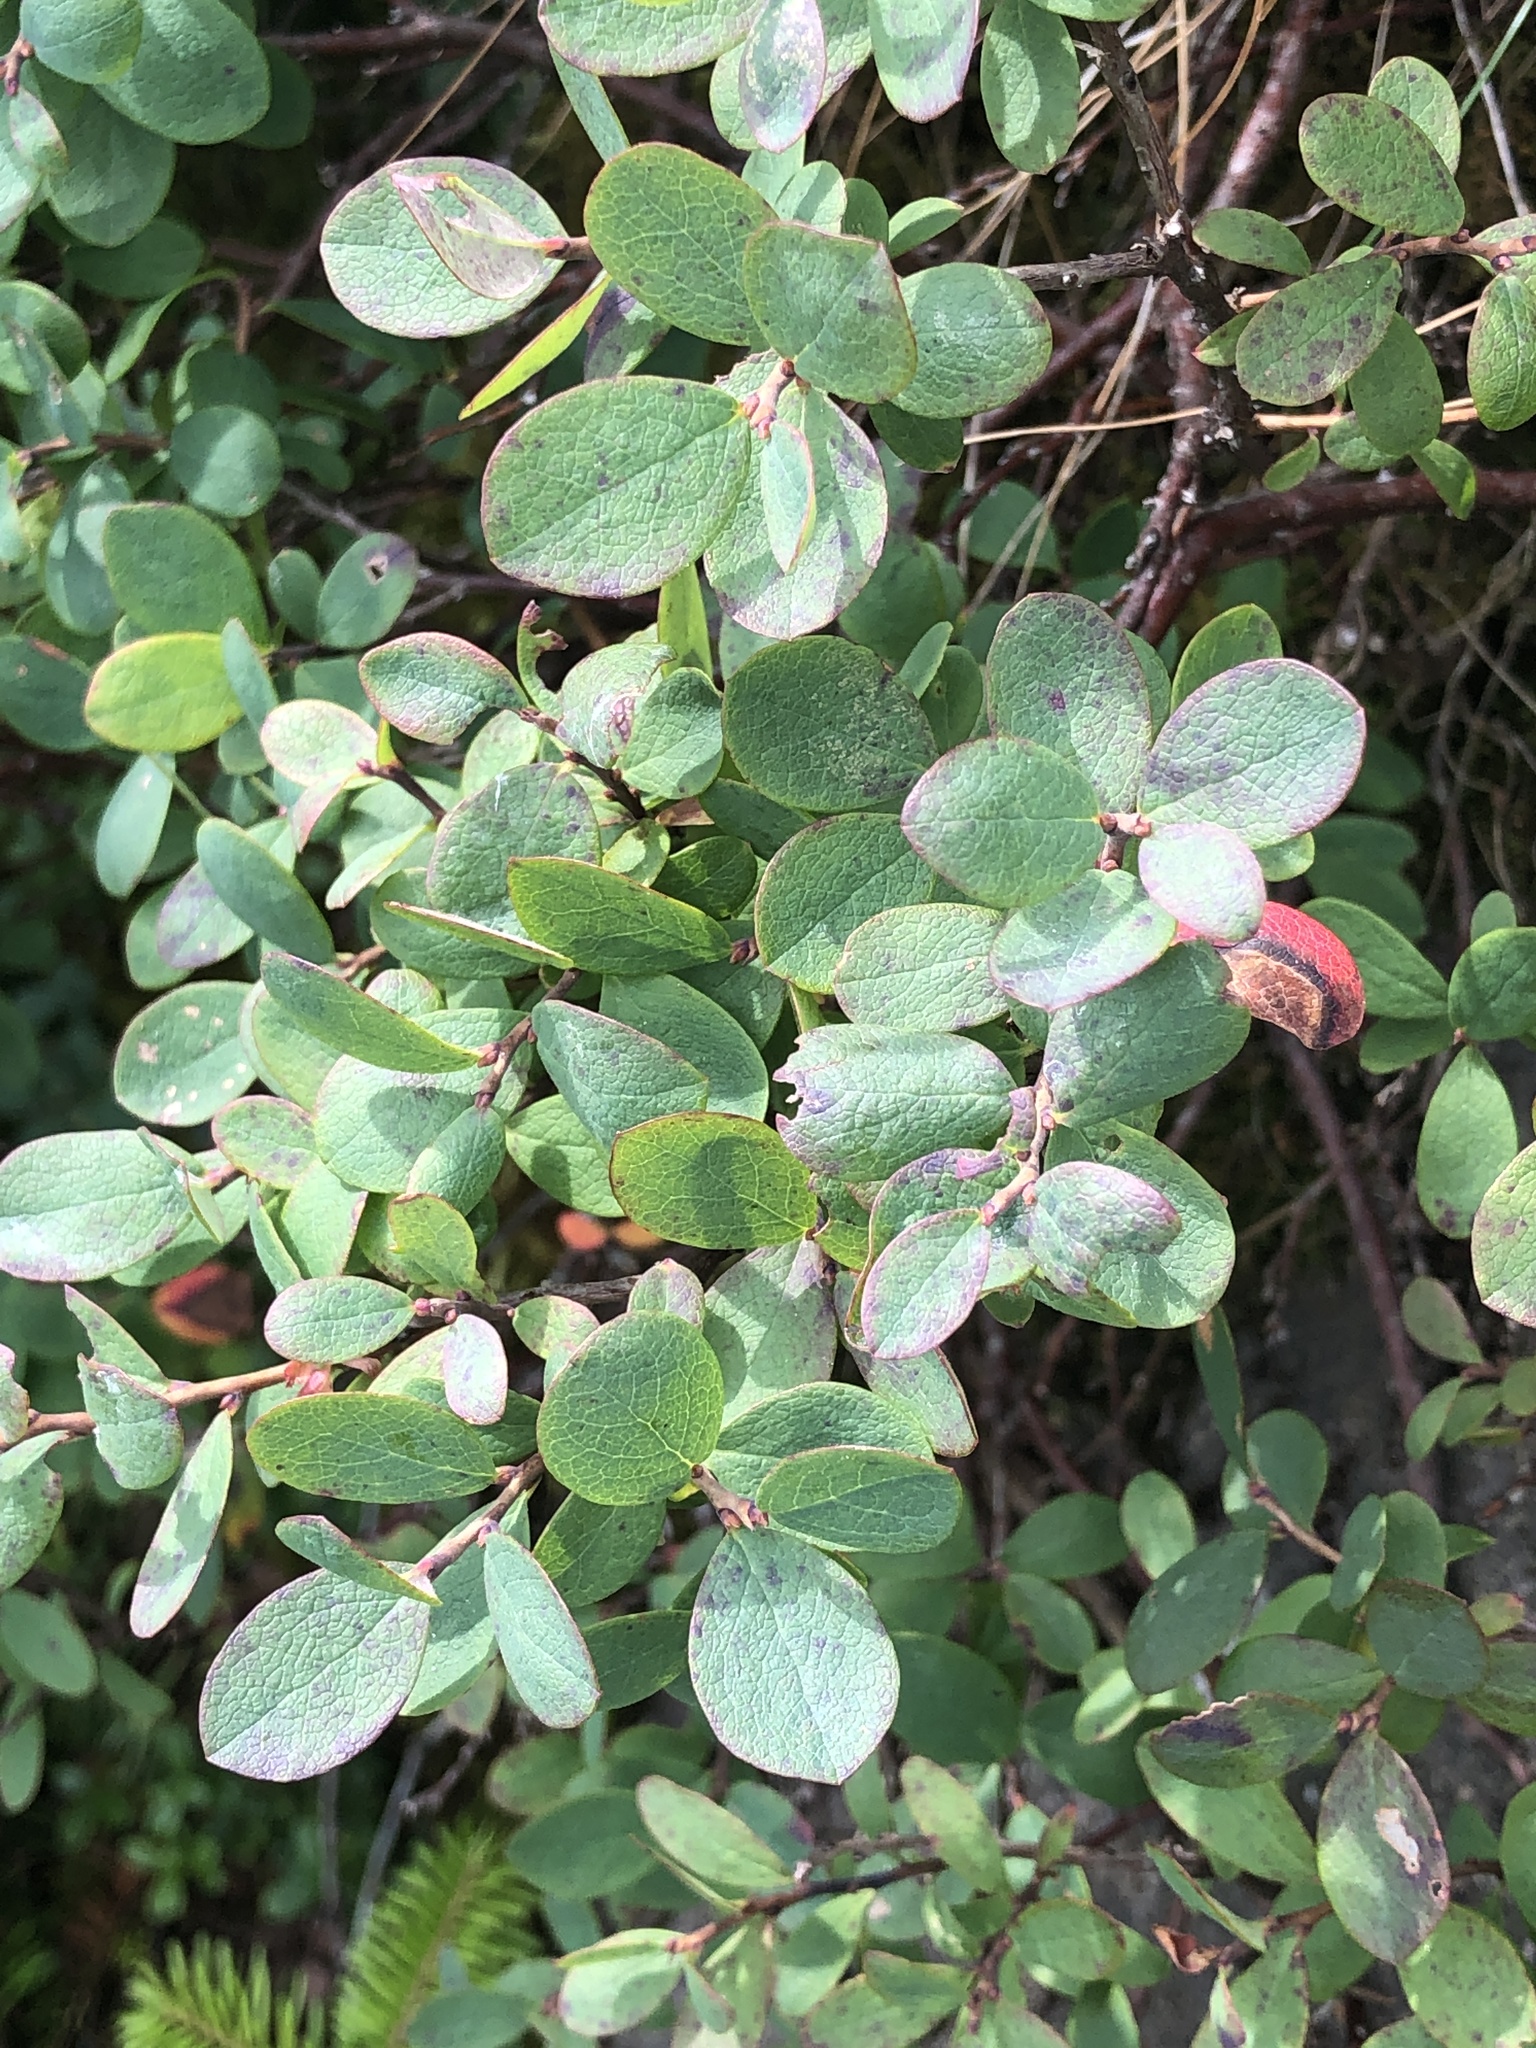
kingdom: Plantae
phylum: Tracheophyta
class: Magnoliopsida
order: Ericales
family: Ericaceae
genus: Vaccinium
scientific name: Vaccinium uliginosum
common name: Bog bilberry
